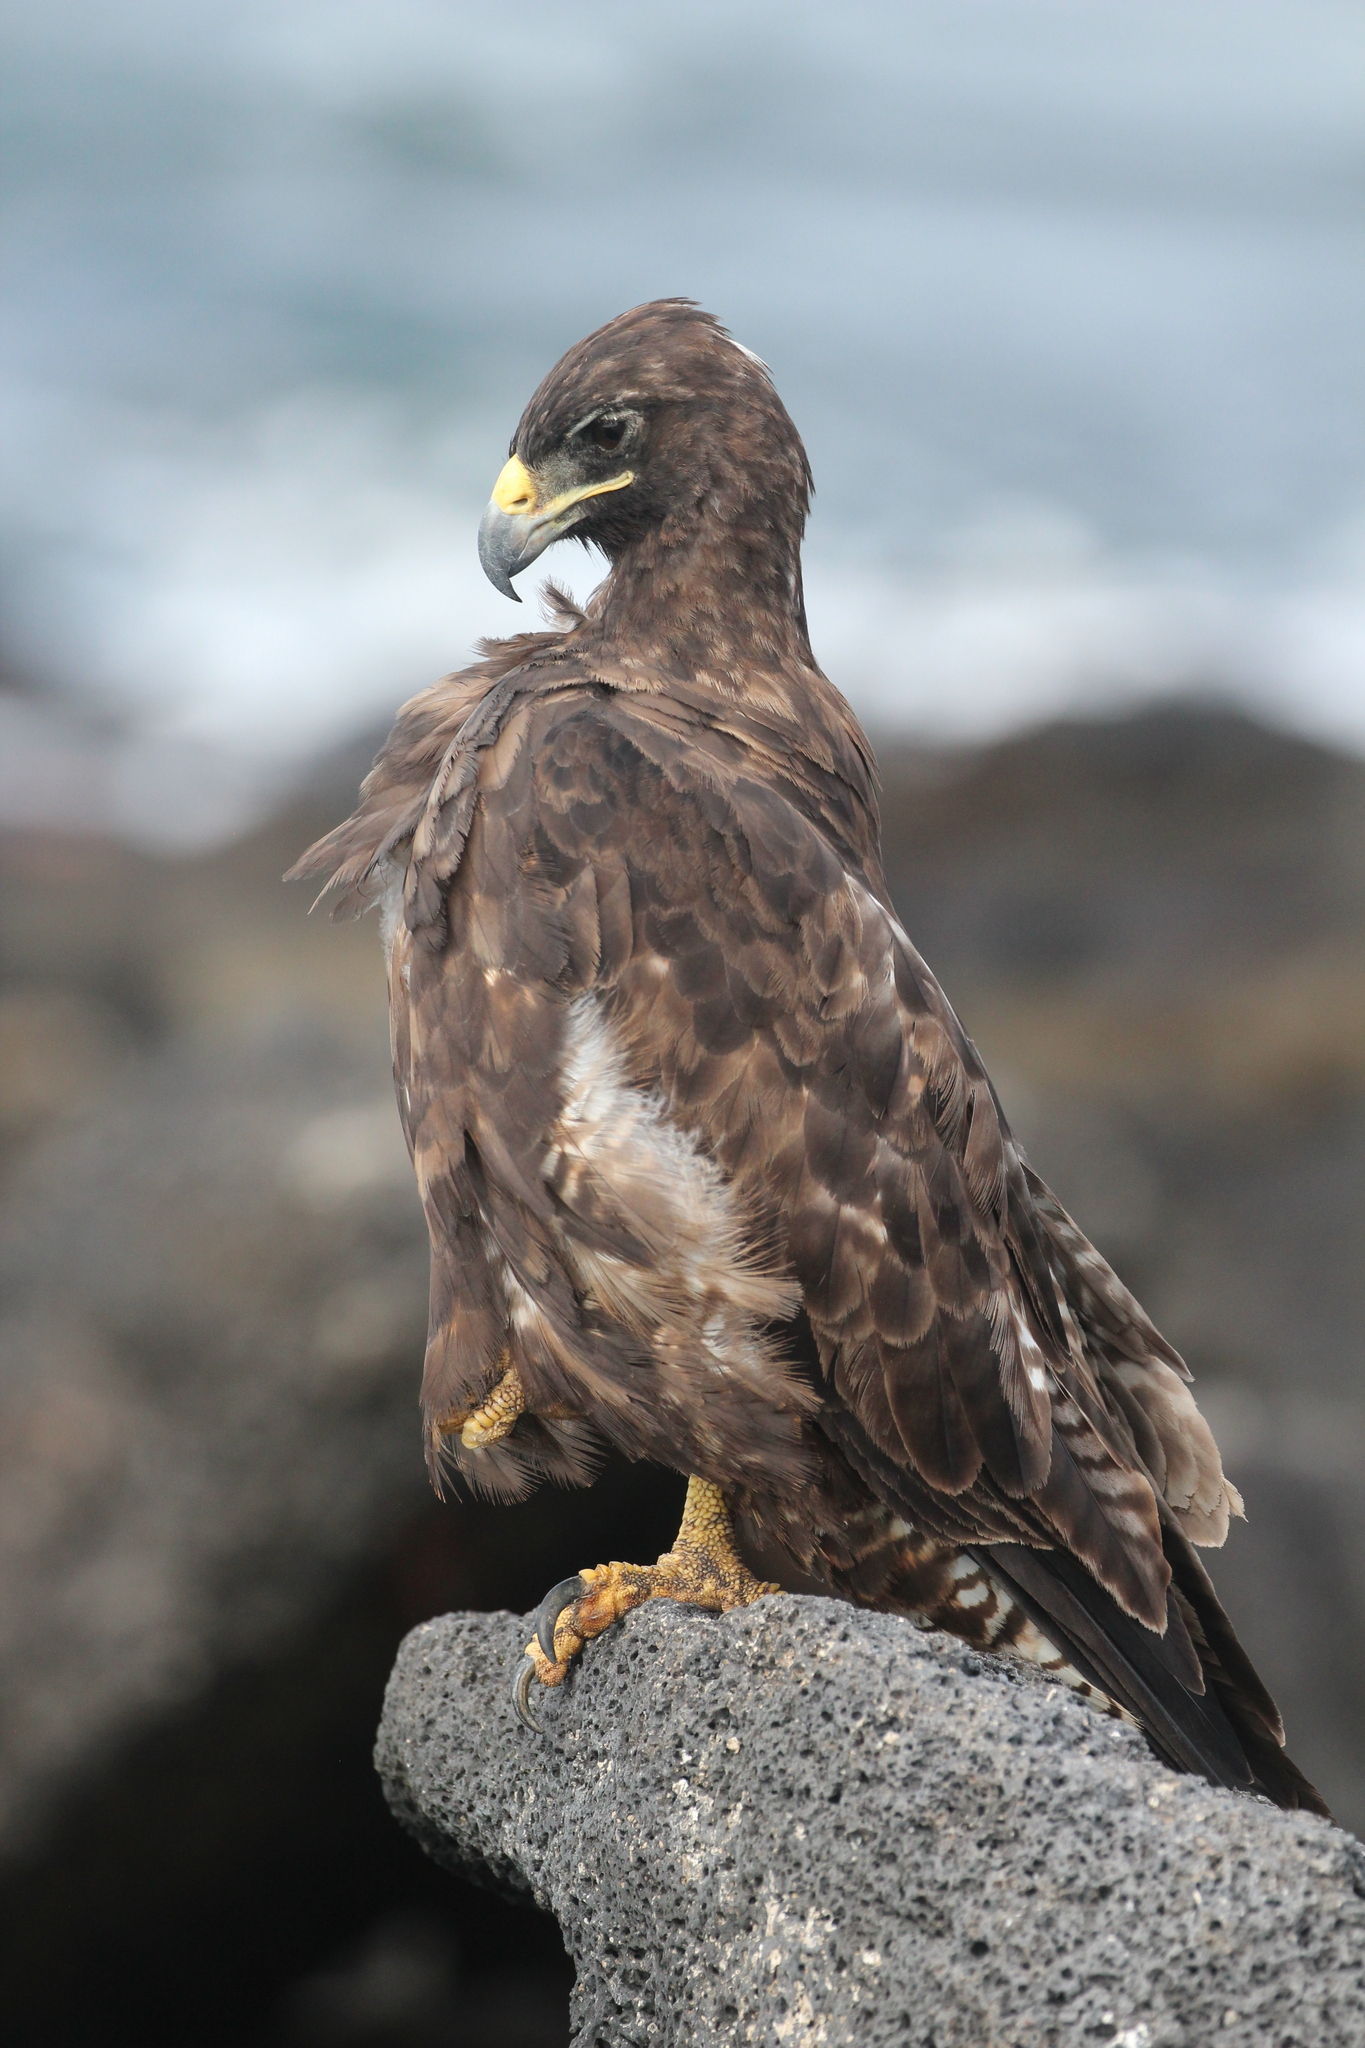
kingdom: Animalia
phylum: Chordata
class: Aves
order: Accipitriformes
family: Accipitridae
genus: Buteo
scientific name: Buteo galapagoensis
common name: Galapagos hawk
